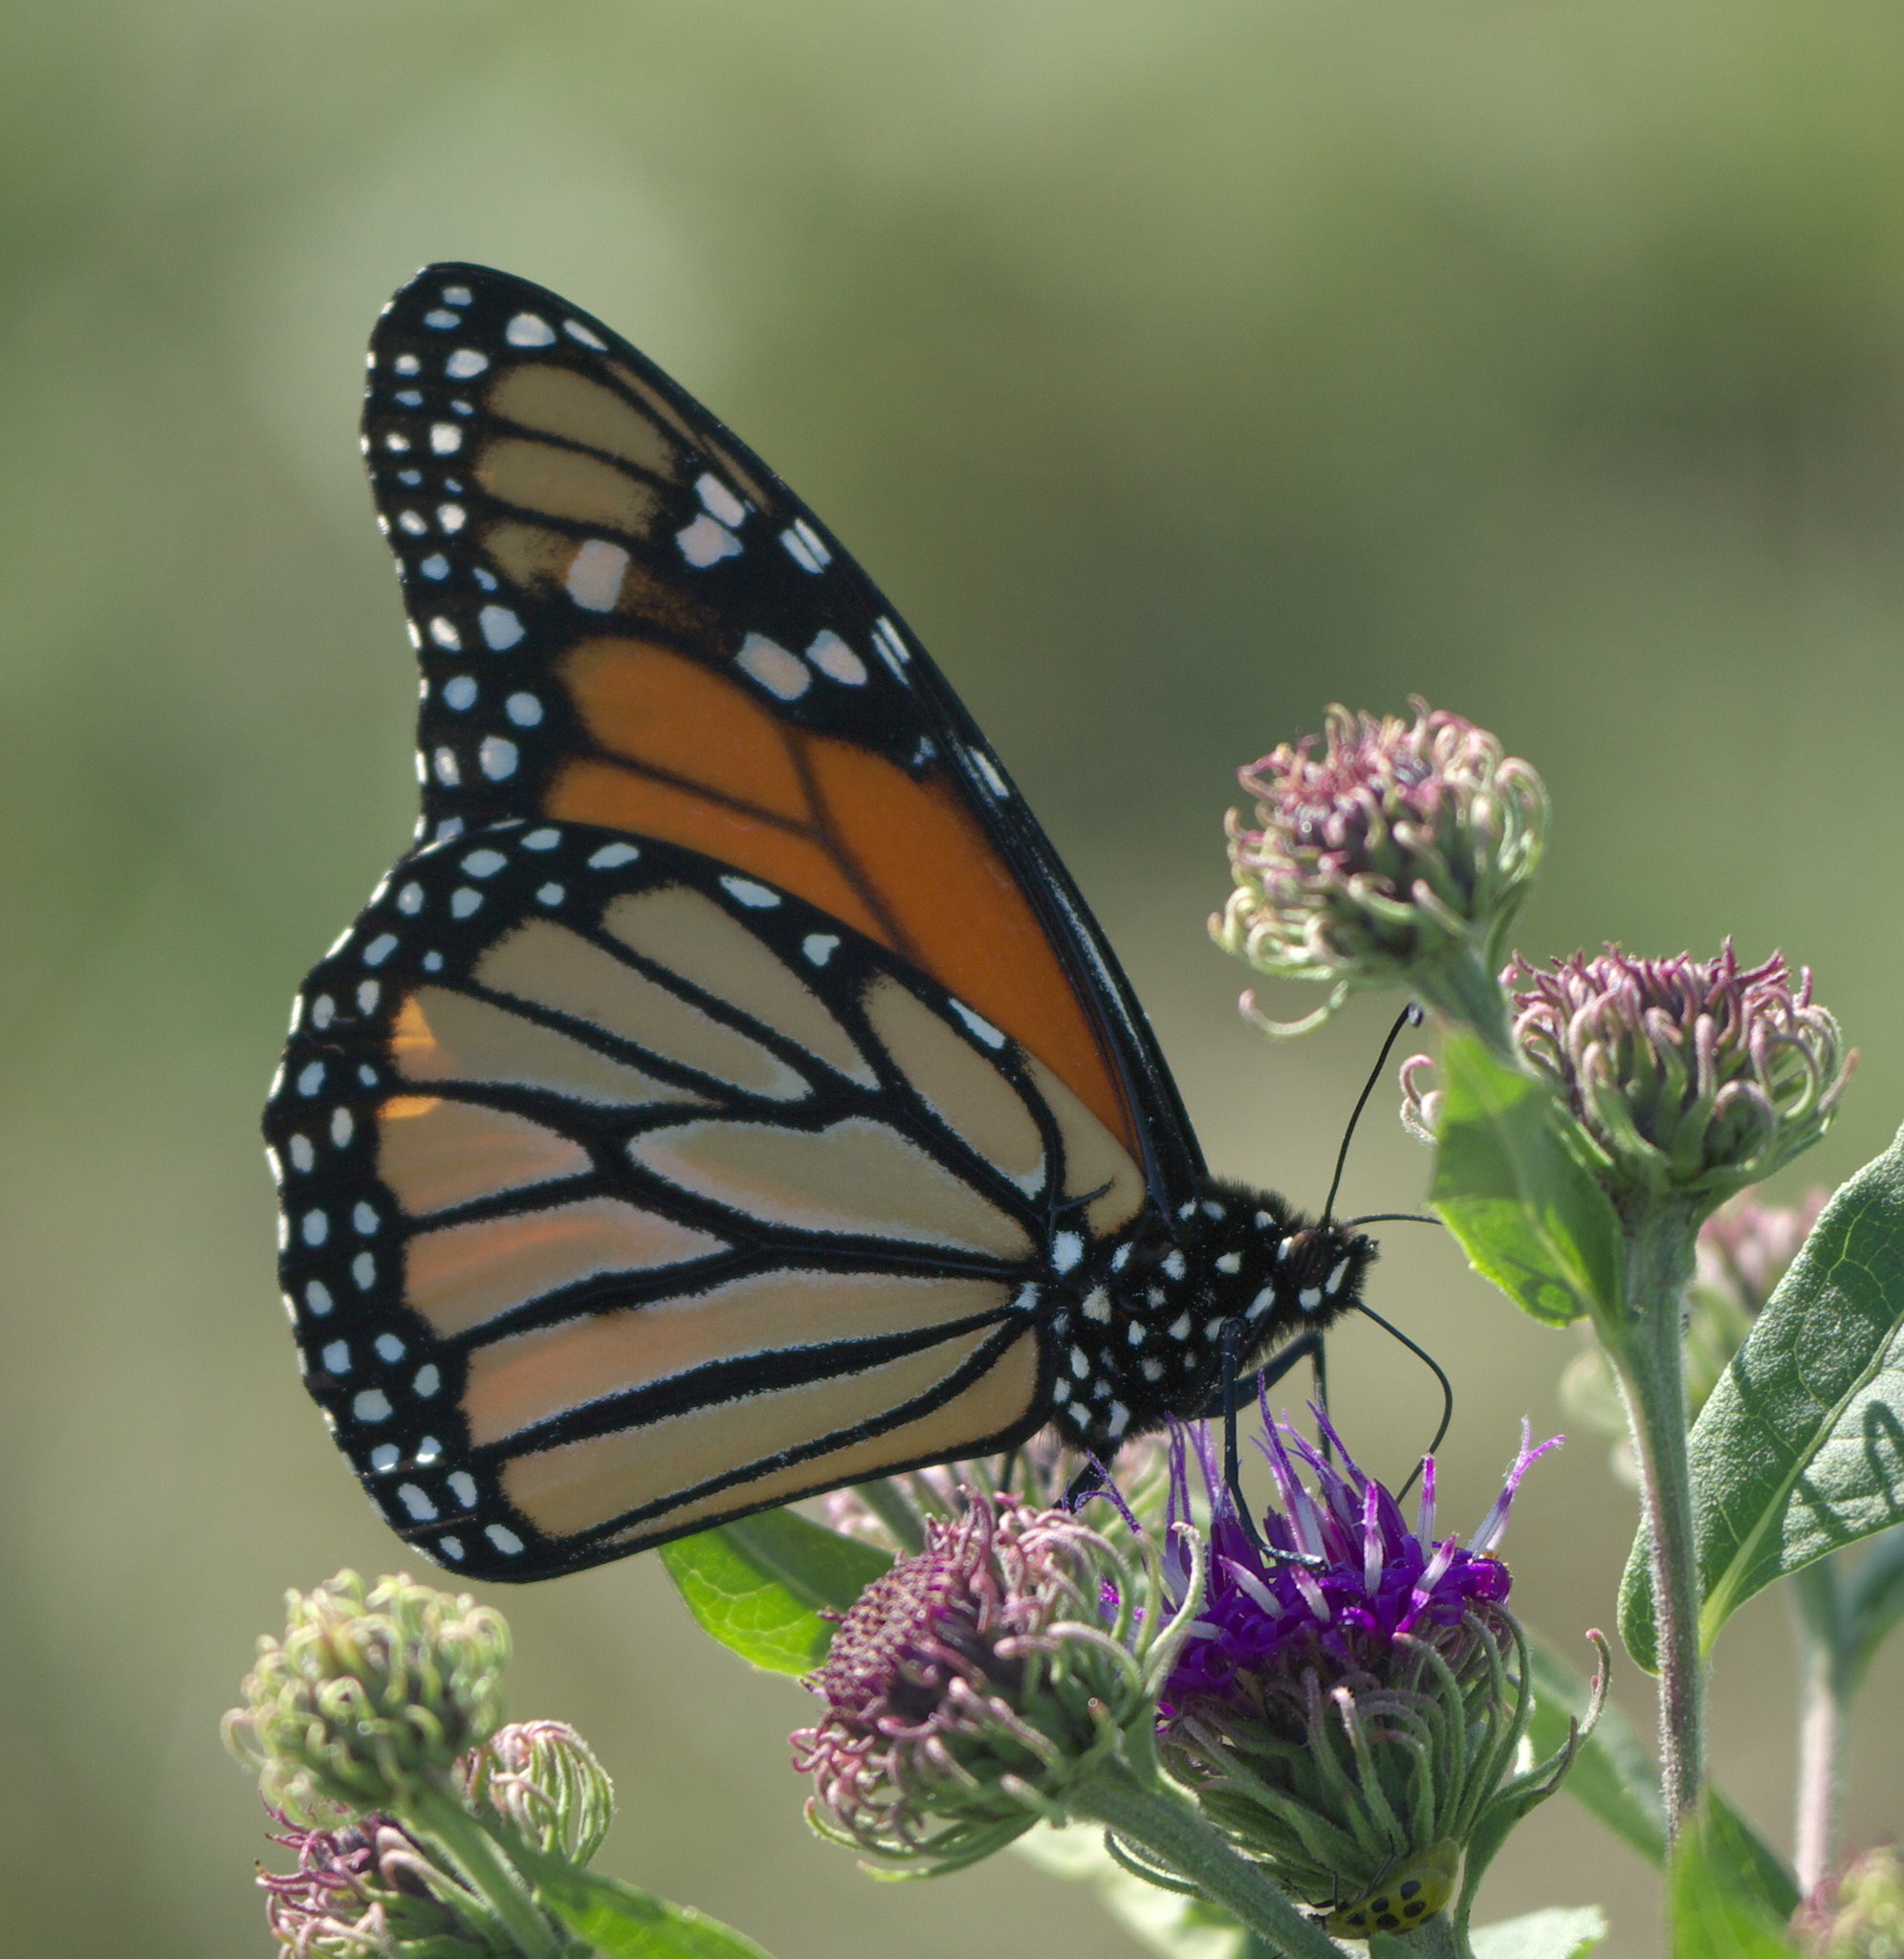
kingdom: Animalia
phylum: Arthropoda
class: Insecta
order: Lepidoptera
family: Nymphalidae
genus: Danaus
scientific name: Danaus plexippus
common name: Monarch
